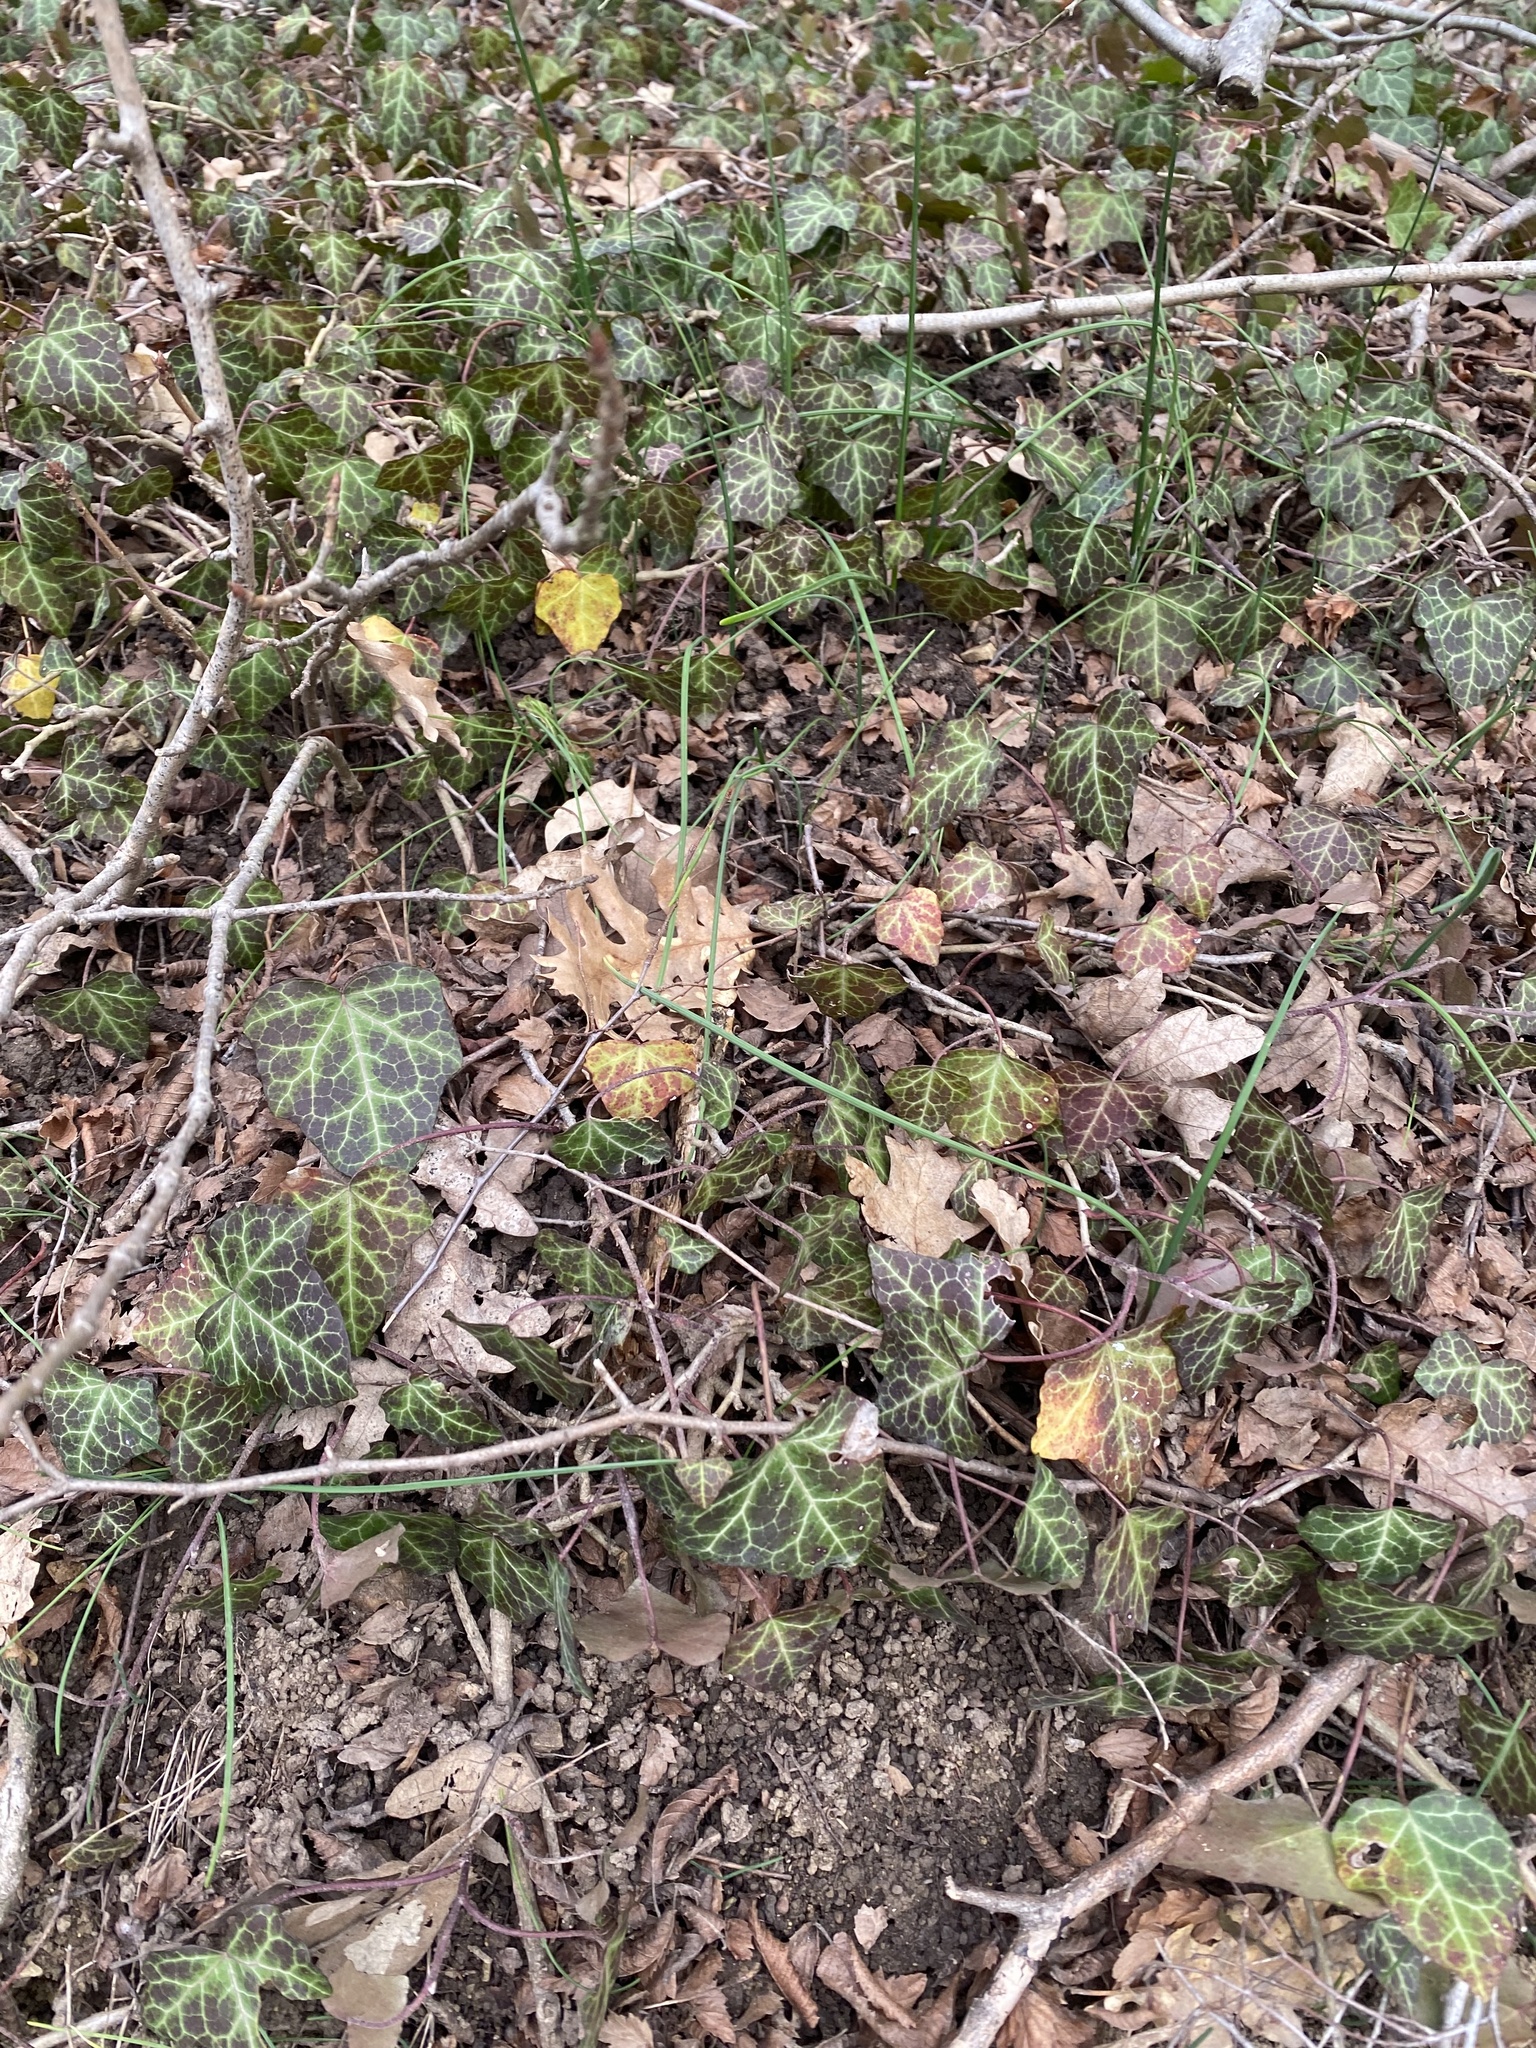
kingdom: Plantae
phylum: Tracheophyta
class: Magnoliopsida
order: Apiales
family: Araliaceae
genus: Hedera
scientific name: Hedera helix
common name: Ivy
